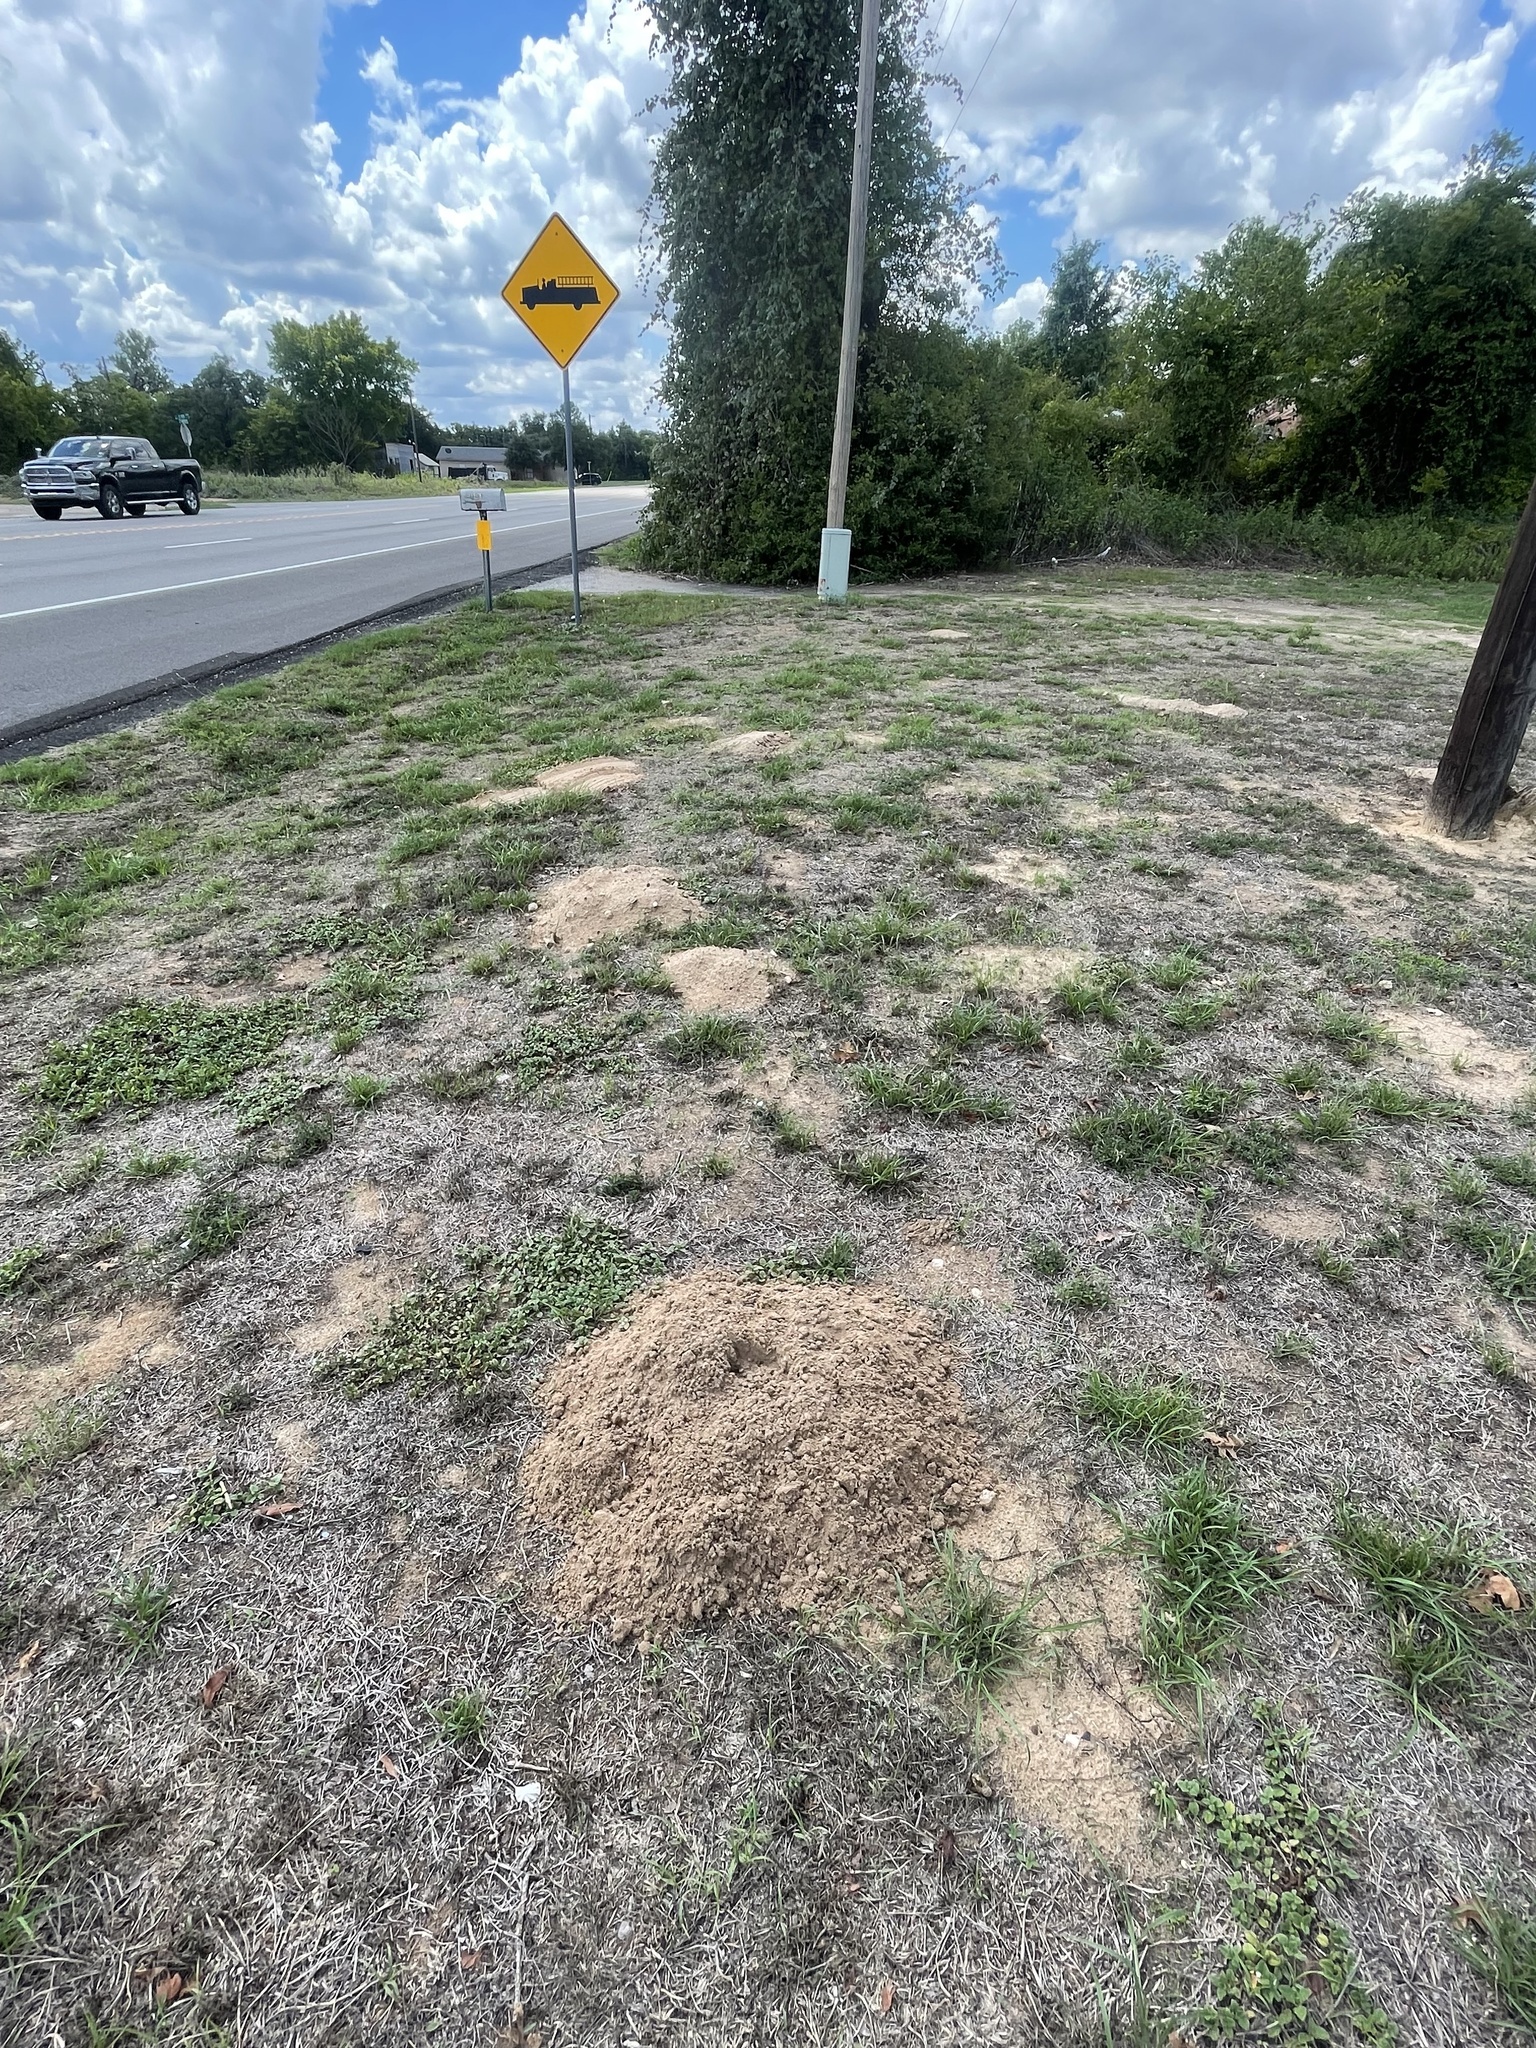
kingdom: Animalia
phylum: Chordata
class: Mammalia
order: Rodentia
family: Geomyidae
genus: Geomys
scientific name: Geomys attwateri
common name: Attwater's pocket gopher
